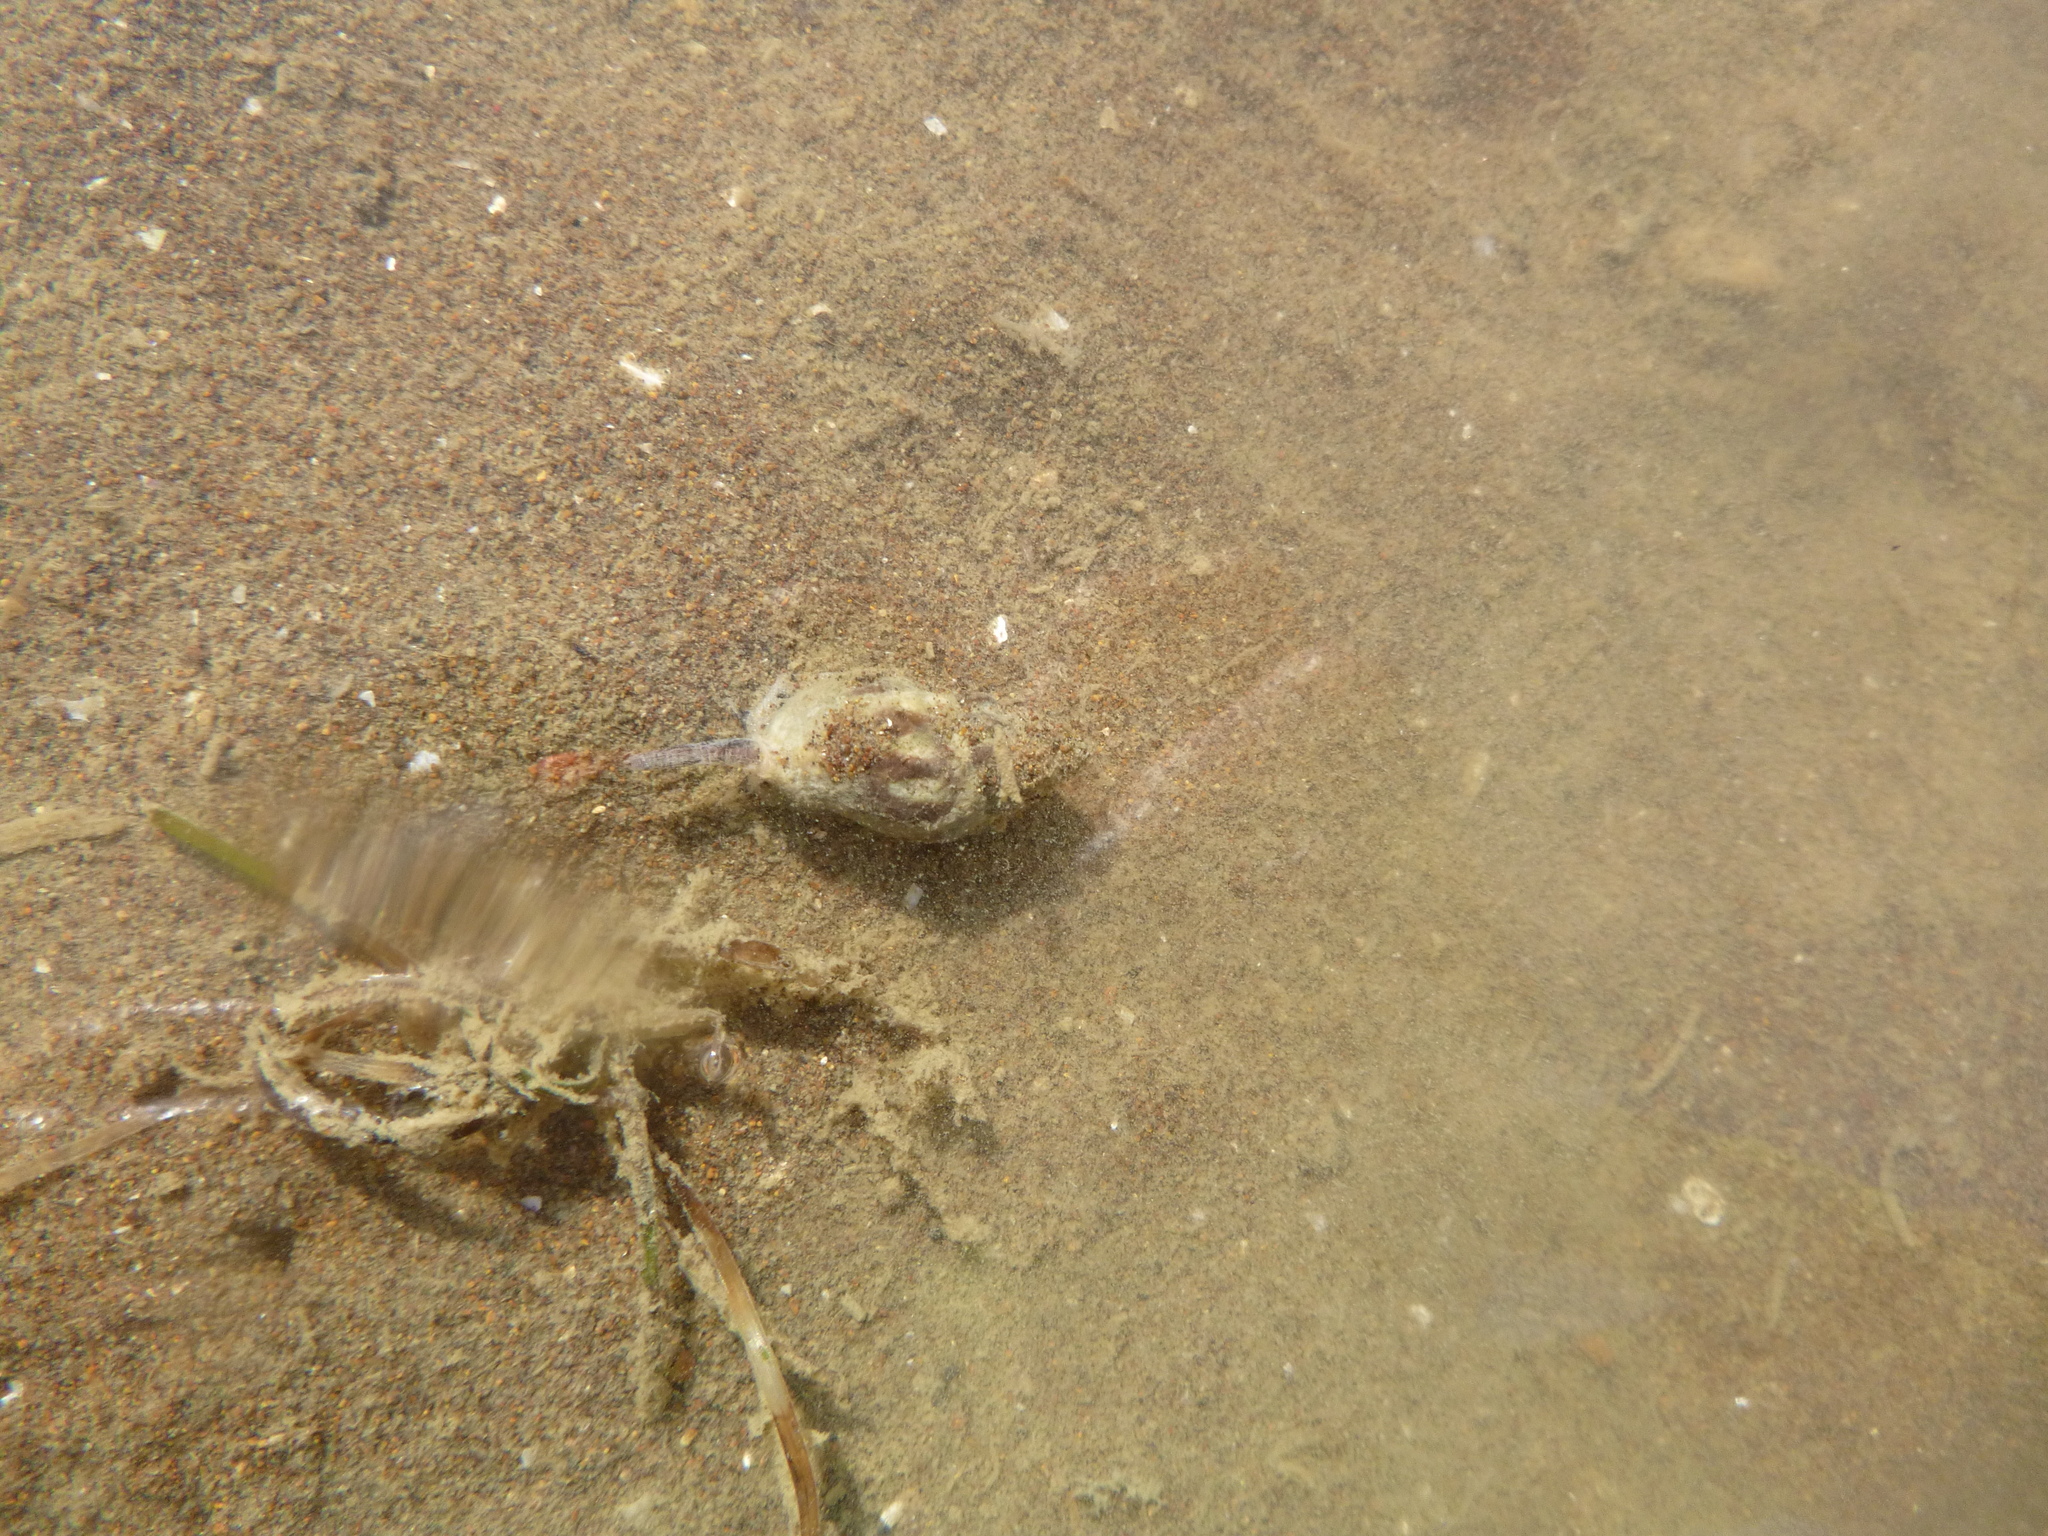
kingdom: Animalia
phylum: Mollusca
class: Gastropoda
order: Neogastropoda
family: Cominellidae
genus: Cominella
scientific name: Cominella glandiformis
